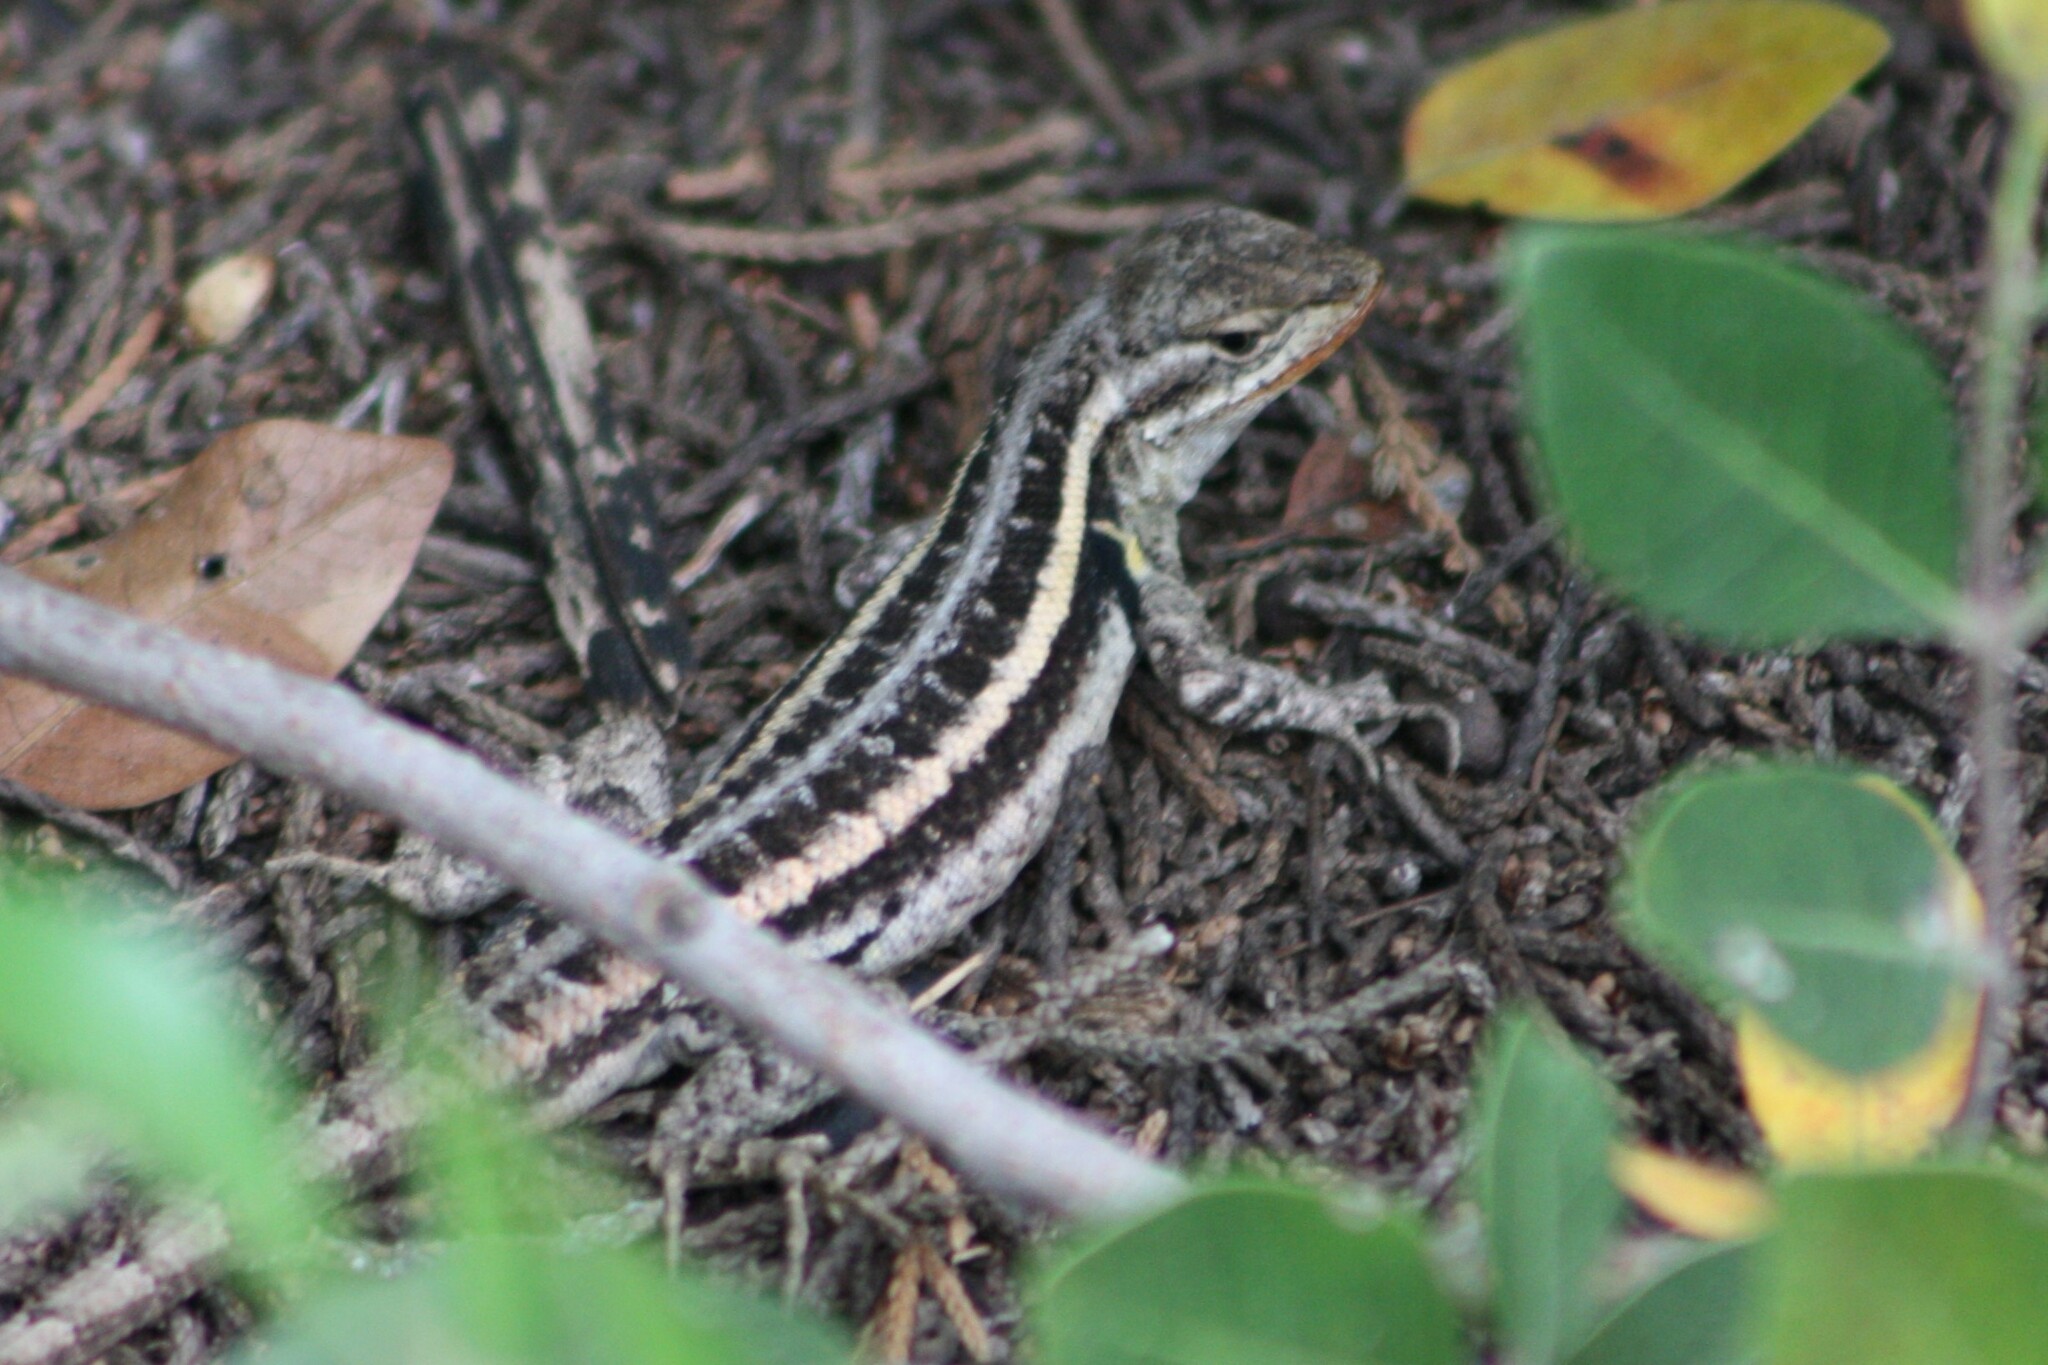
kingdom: Animalia
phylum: Chordata
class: Squamata
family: Phrynosomatidae
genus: Sceloporus
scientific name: Sceloporus variabilis
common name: Rosebelly lizard
